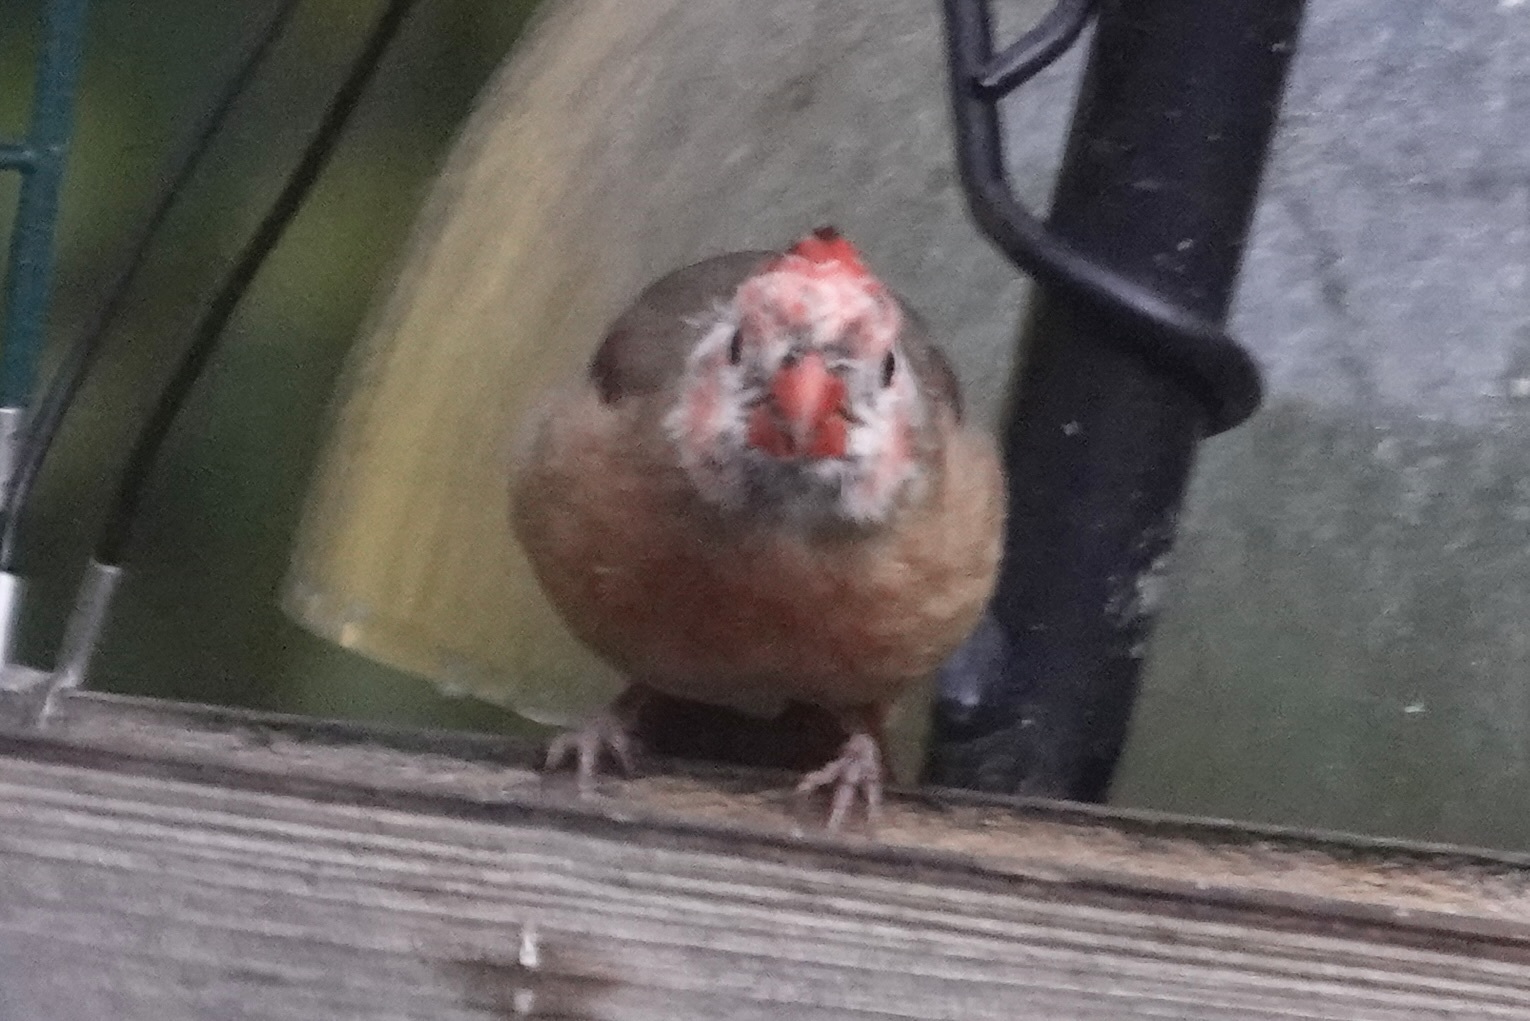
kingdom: Animalia
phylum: Chordata
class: Aves
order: Passeriformes
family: Cardinalidae
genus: Cardinalis
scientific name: Cardinalis cardinalis
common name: Northern cardinal
